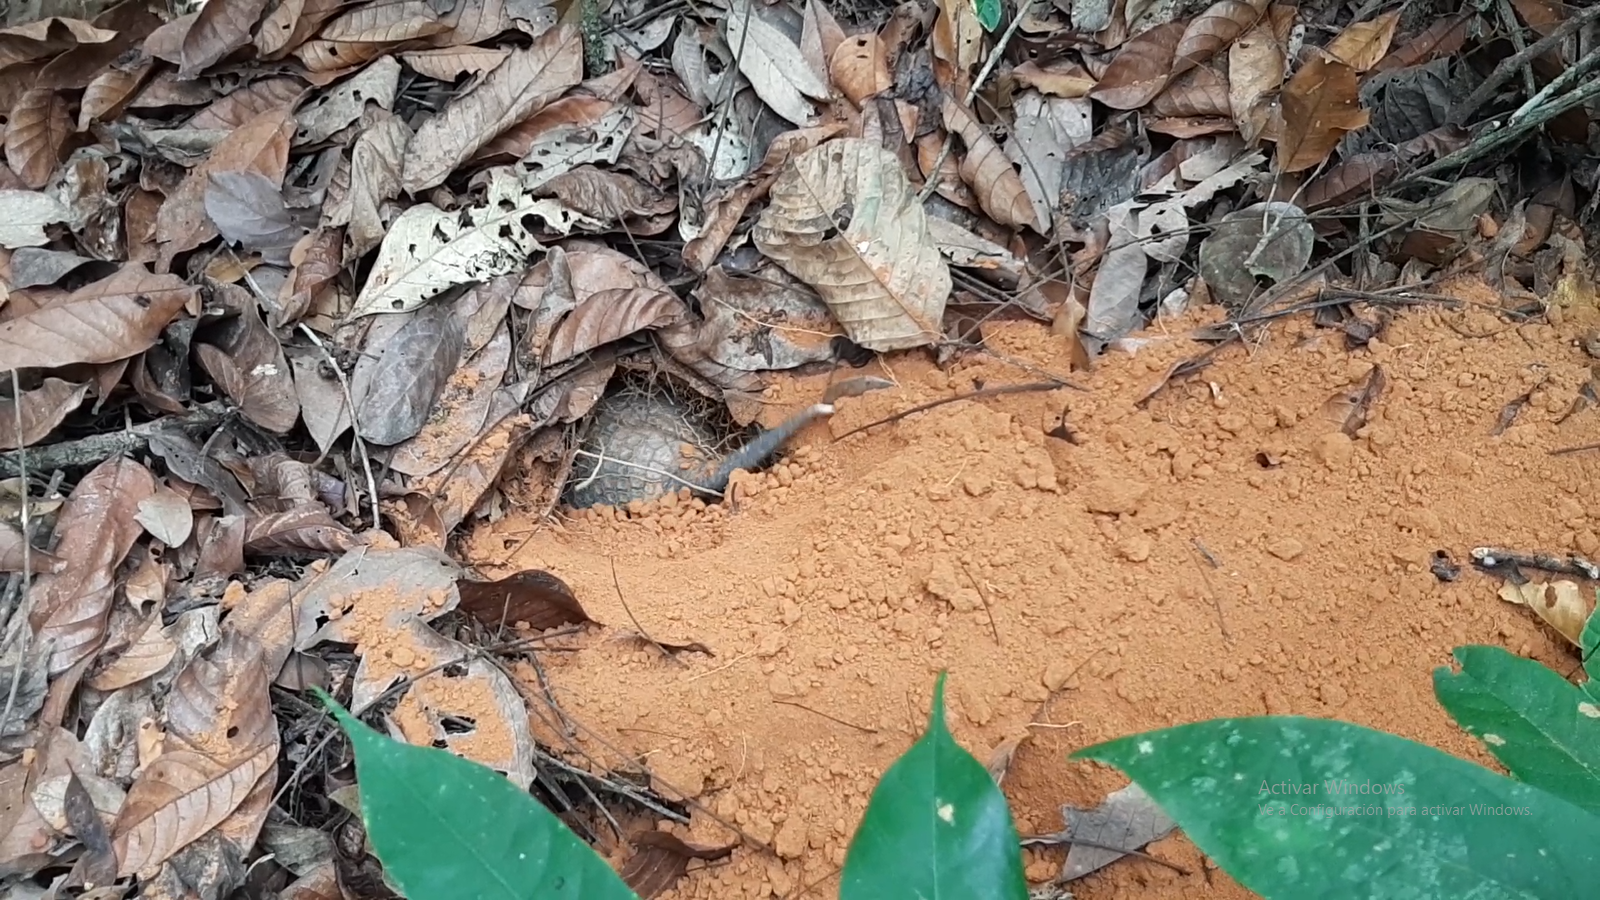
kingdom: Animalia
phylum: Chordata
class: Mammalia
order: Cingulata
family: Dasypodidae
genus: Cabassous
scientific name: Cabassous unicinctus
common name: Southern naked-tailed armadillo
